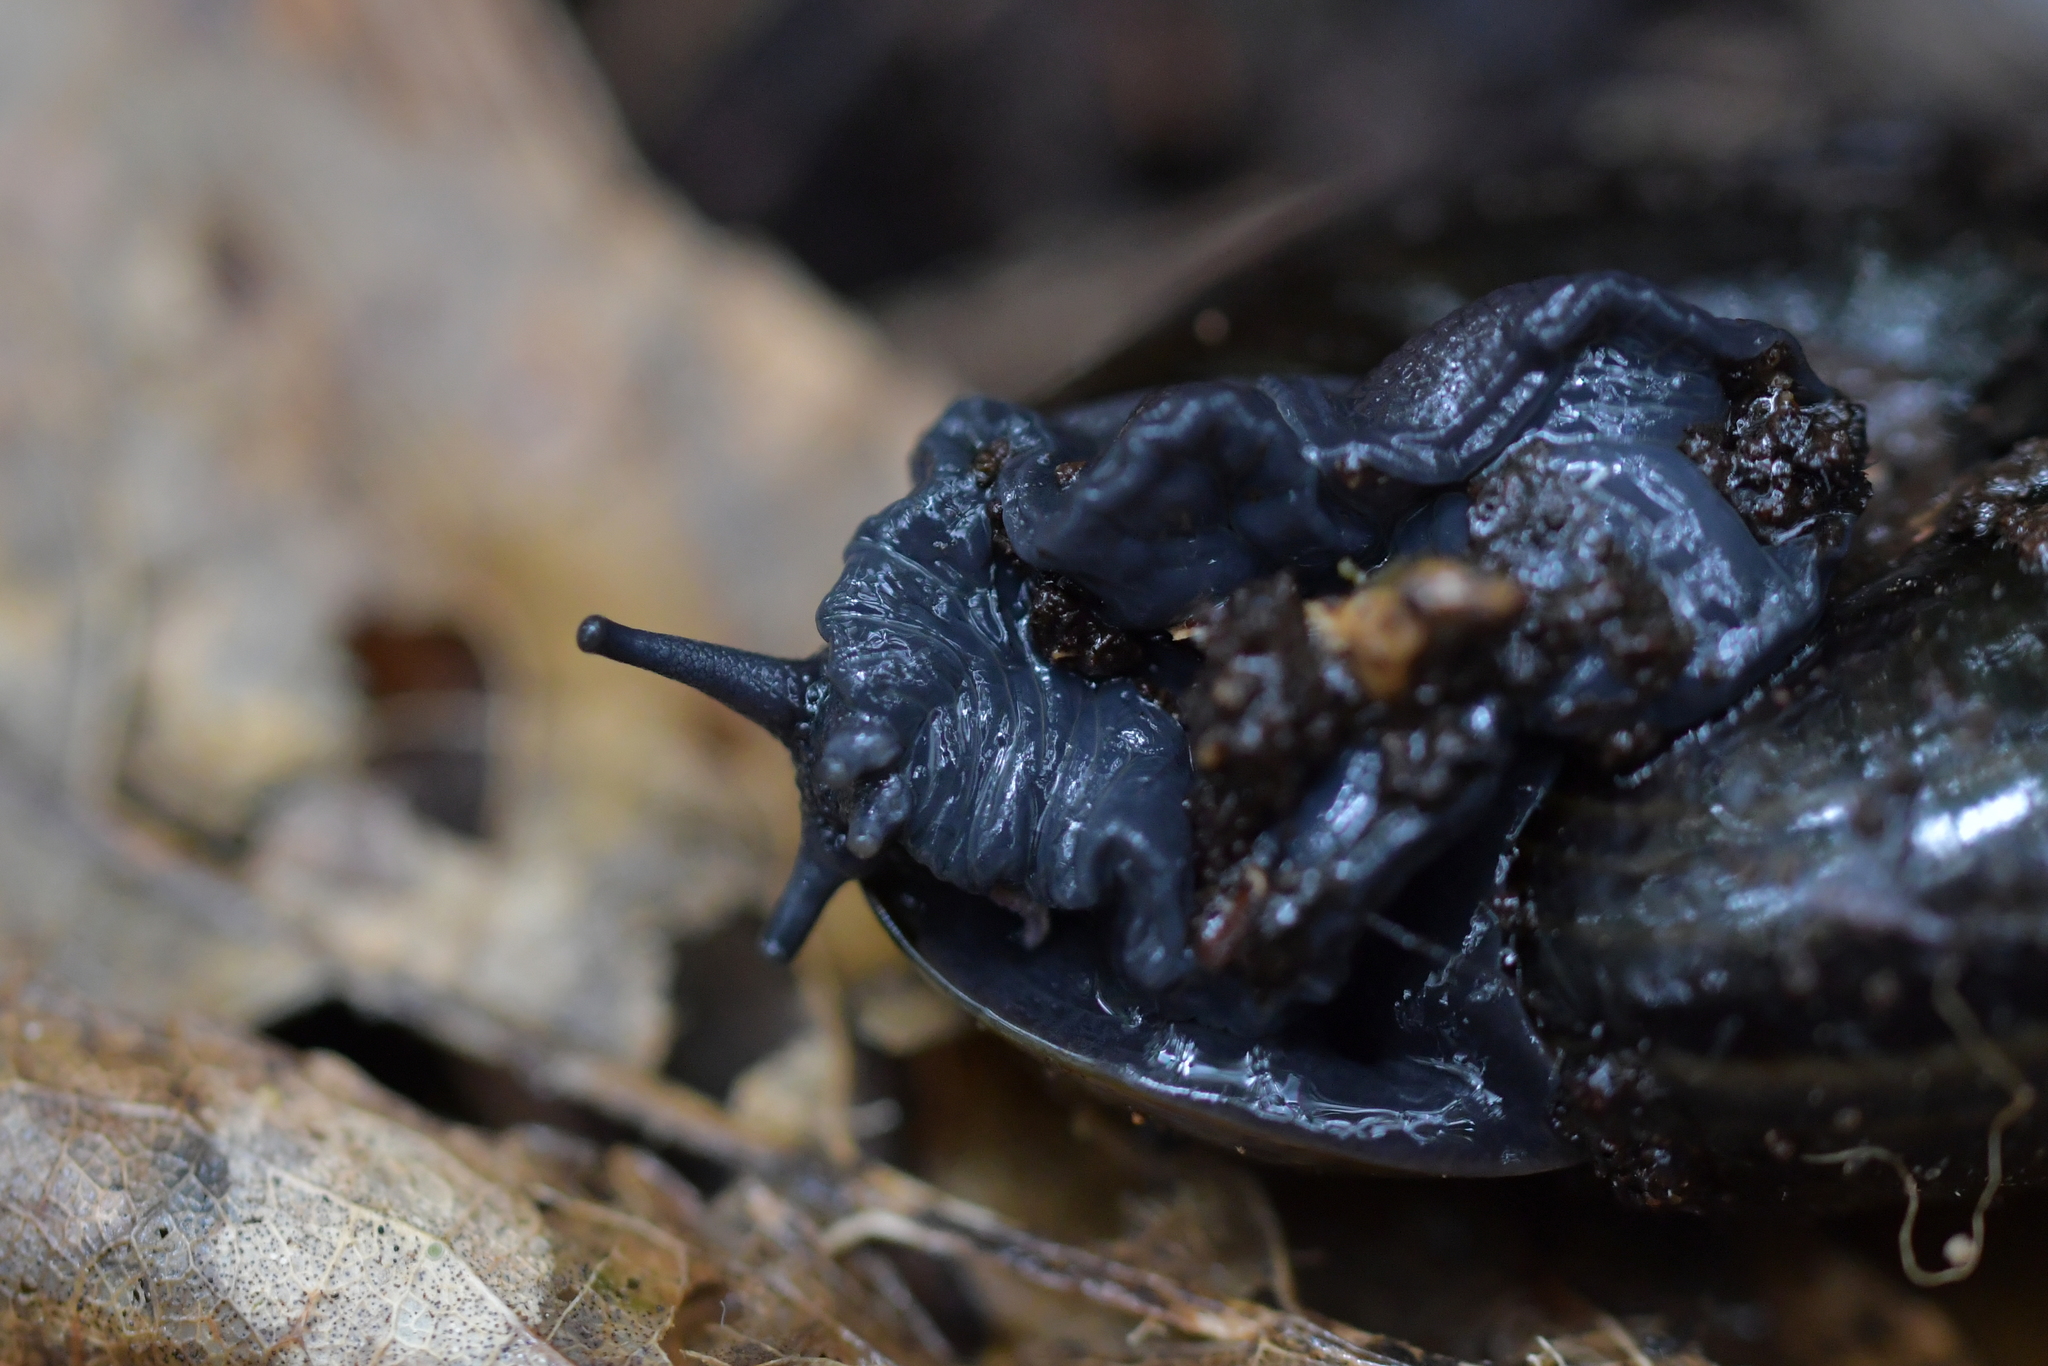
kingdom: Animalia
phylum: Mollusca
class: Gastropoda
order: Stylommatophora
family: Rhytididae
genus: Powelliphanta
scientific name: Powelliphanta traversi
